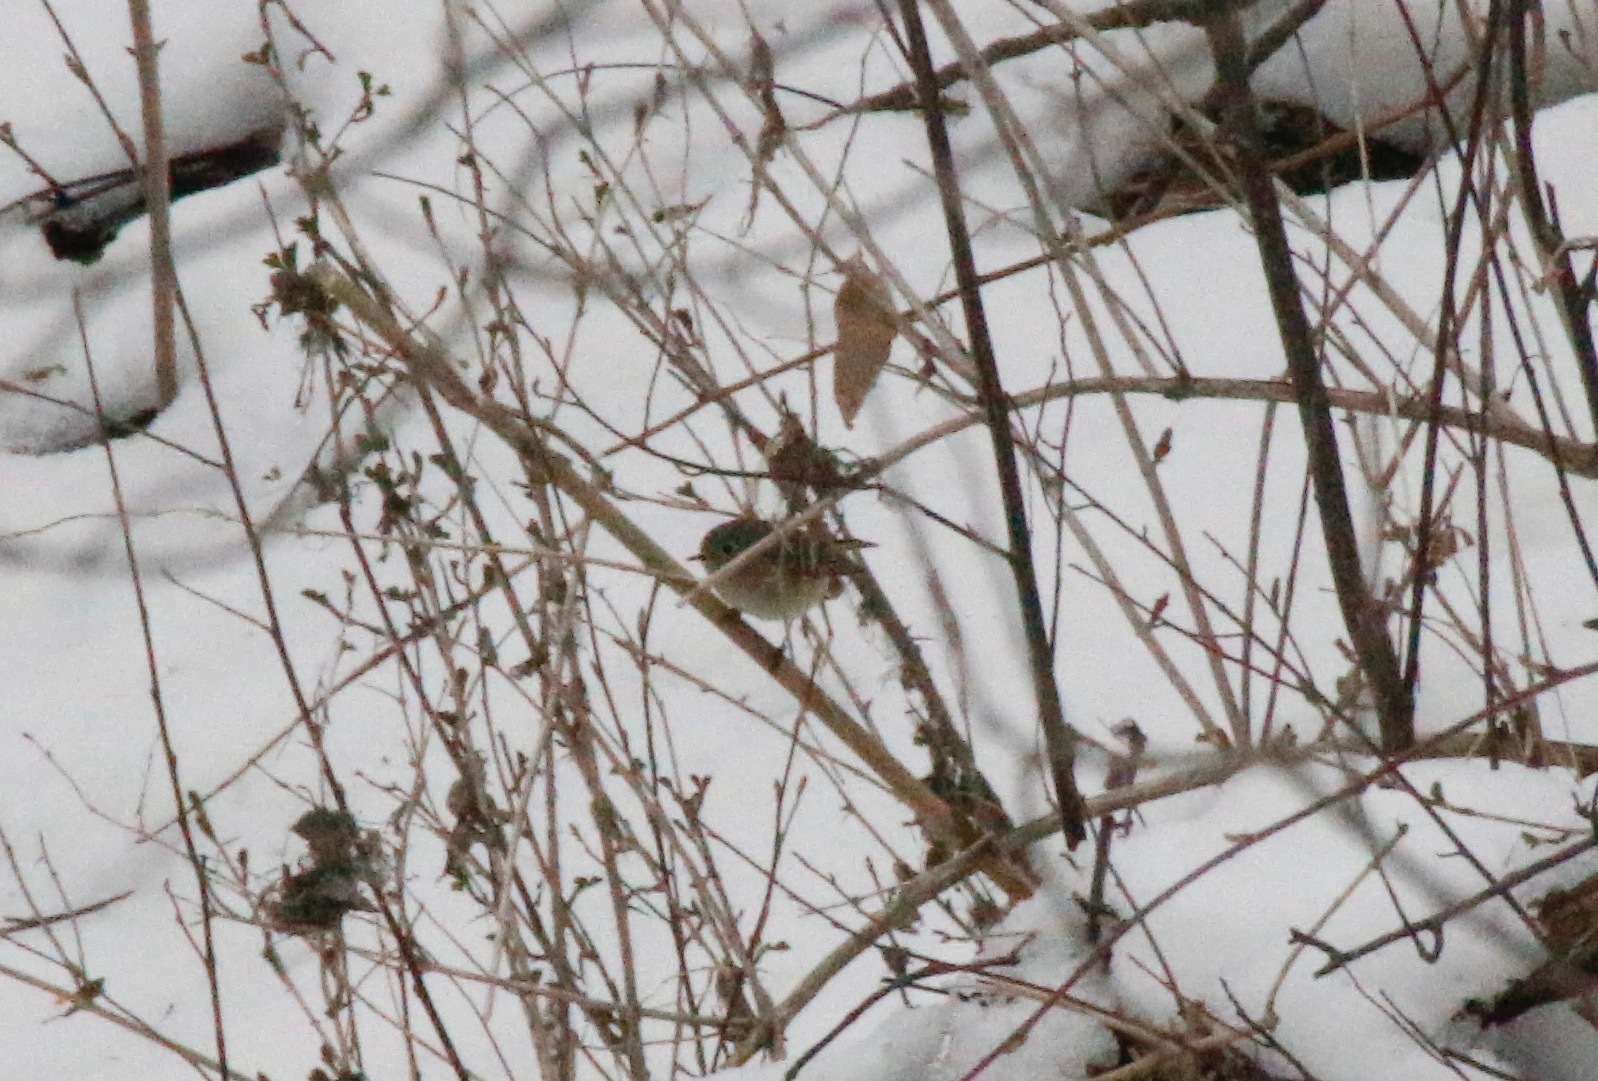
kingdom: Animalia
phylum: Chordata
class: Aves
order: Passeriformes
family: Regulidae
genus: Regulus
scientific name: Regulus calendula
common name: Ruby-crowned kinglet
